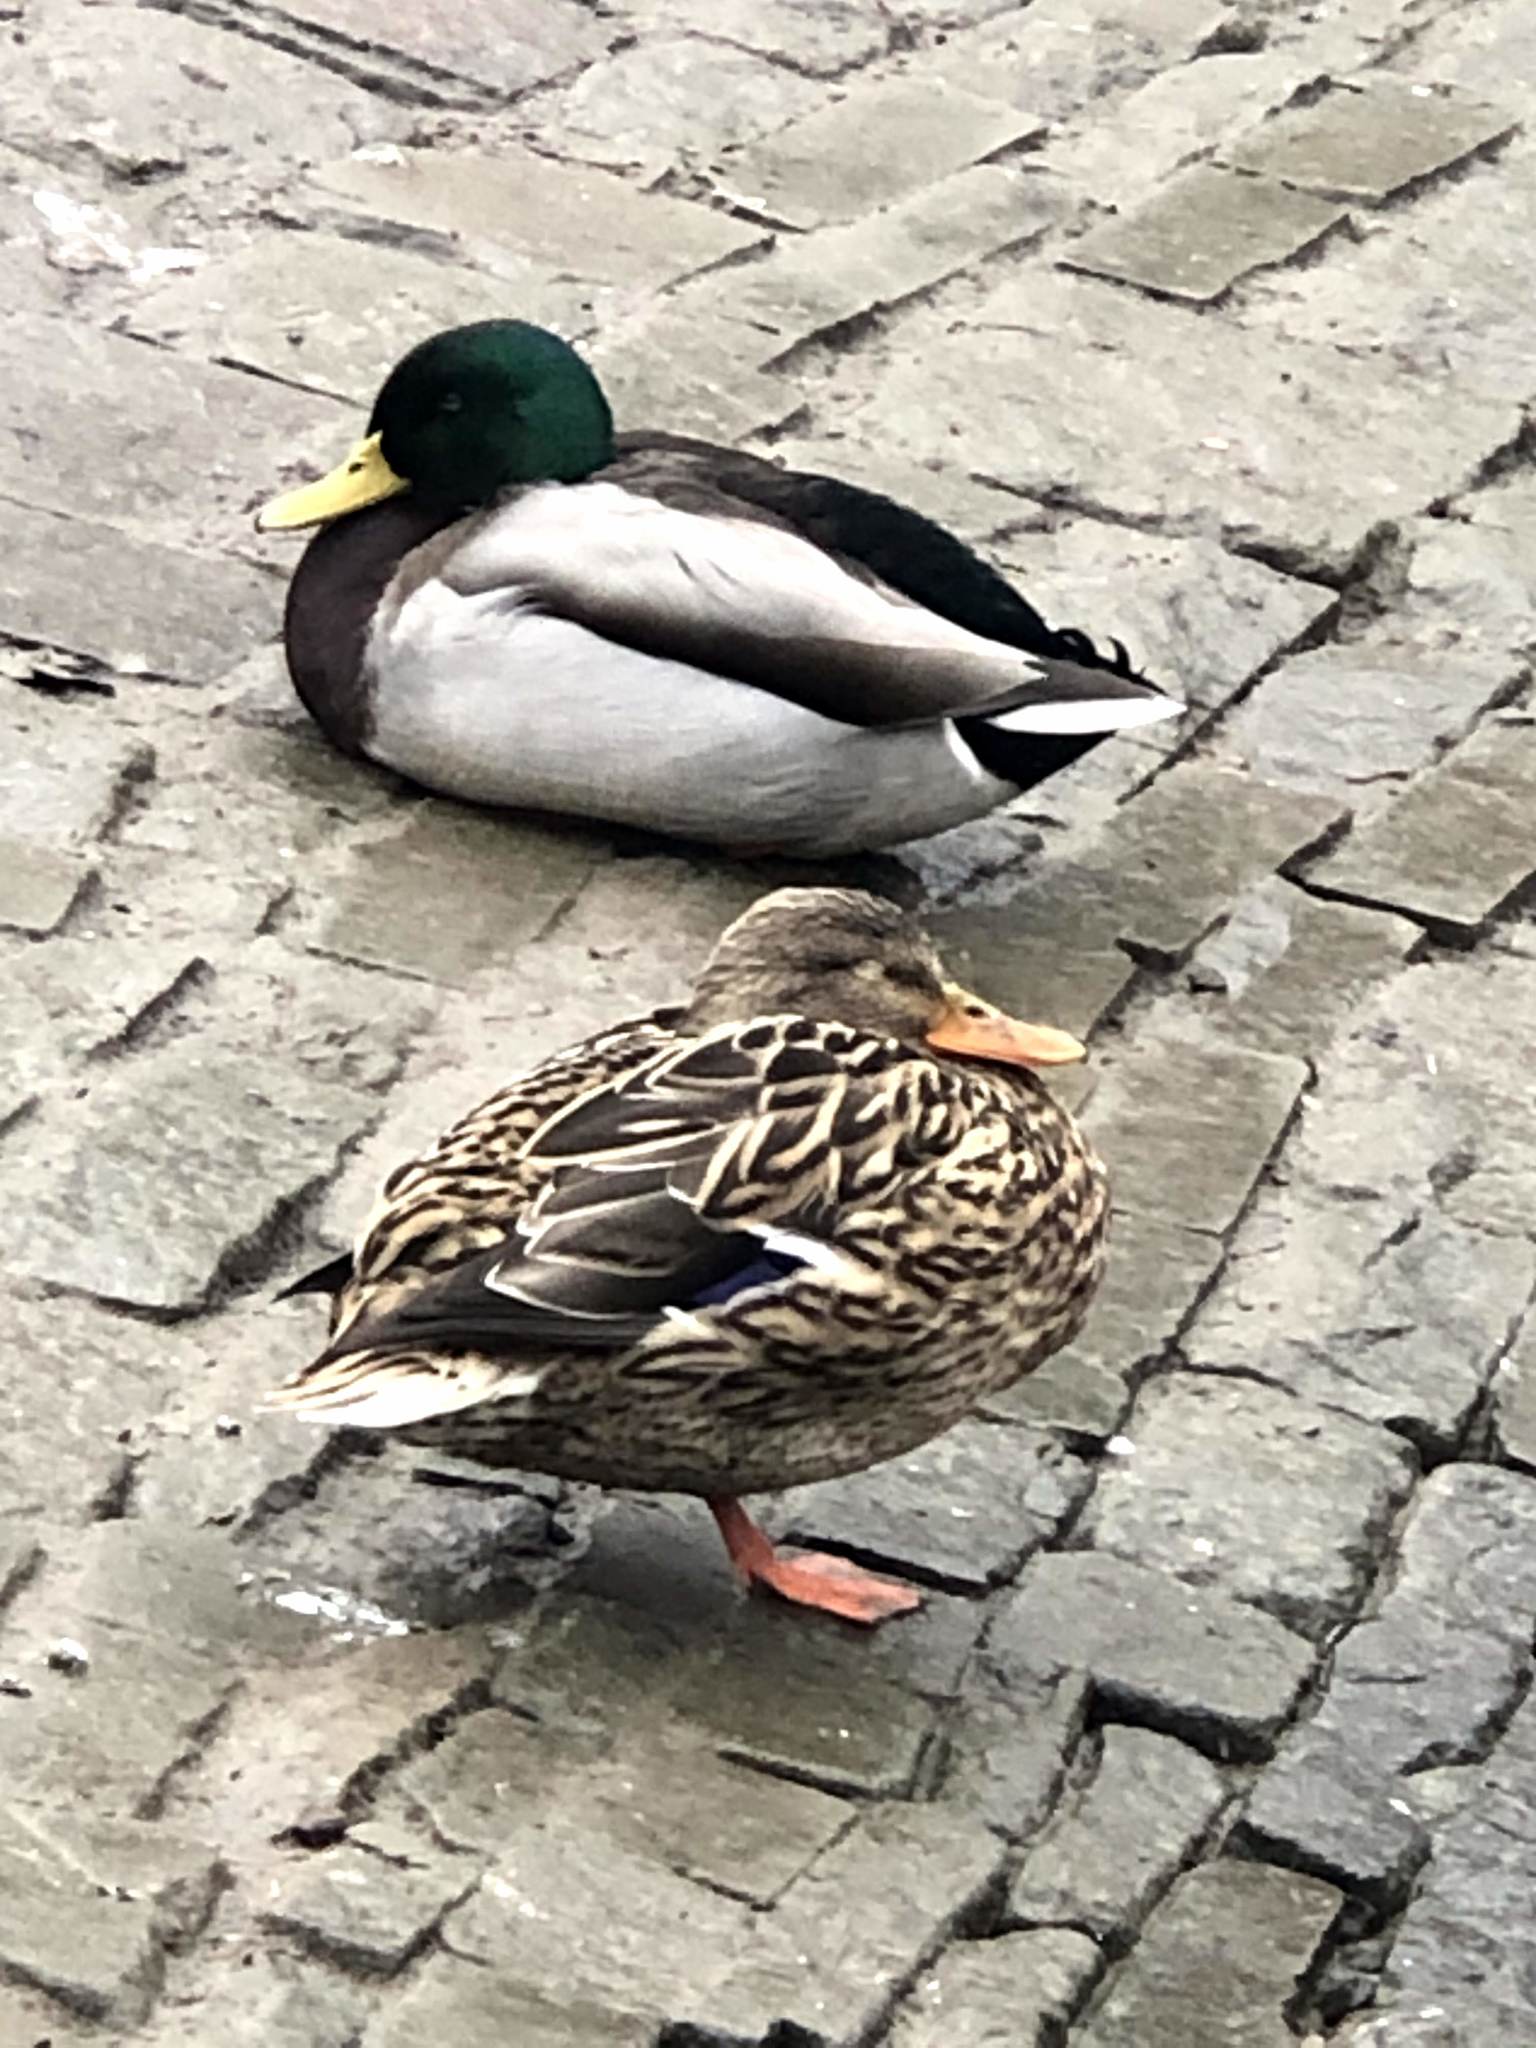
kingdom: Animalia
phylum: Chordata
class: Aves
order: Anseriformes
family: Anatidae
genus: Anas
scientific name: Anas platyrhynchos
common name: Mallard
